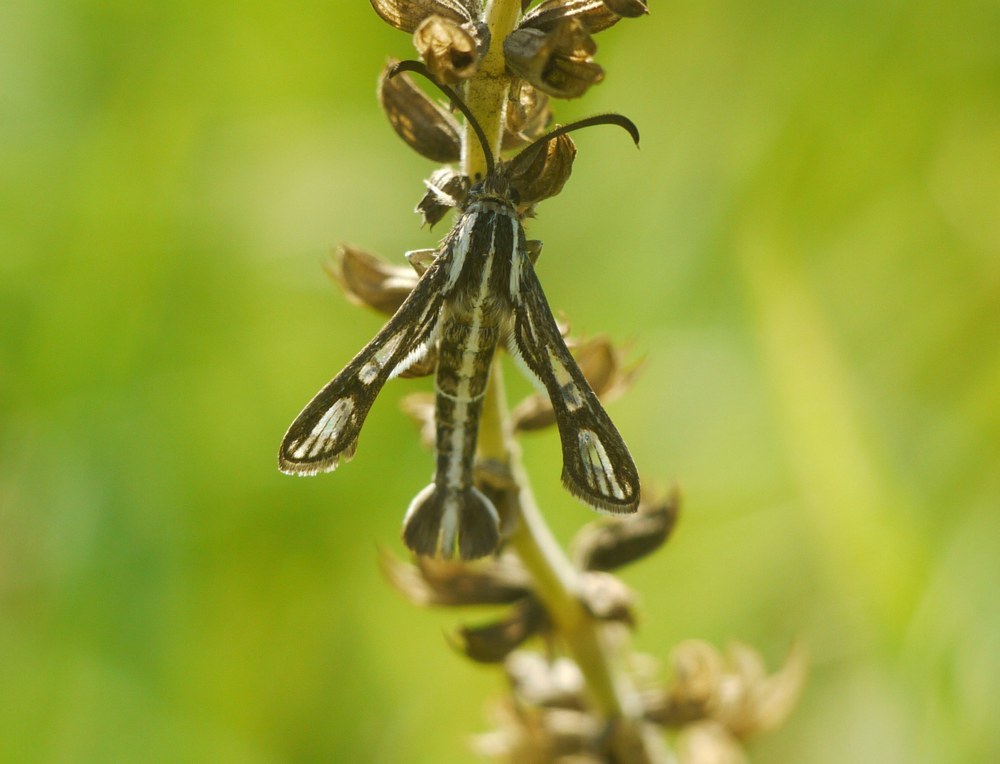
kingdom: Animalia
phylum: Arthropoda
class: Insecta
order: Lepidoptera
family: Sesiidae
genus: Chamaesphecia
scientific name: Chamaesphecia leucopsiformis
